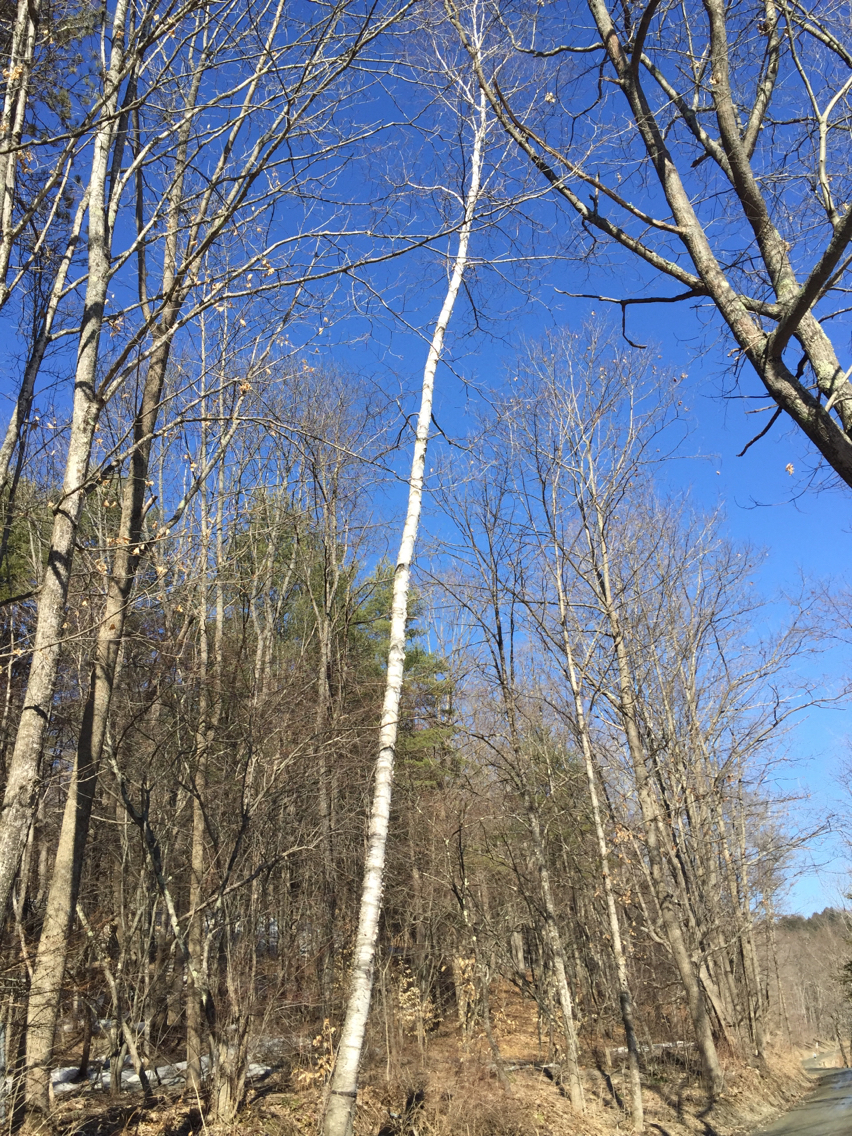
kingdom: Plantae
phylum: Tracheophyta
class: Magnoliopsida
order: Fagales
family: Betulaceae
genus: Betula
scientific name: Betula papyrifera
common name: Paper birch
